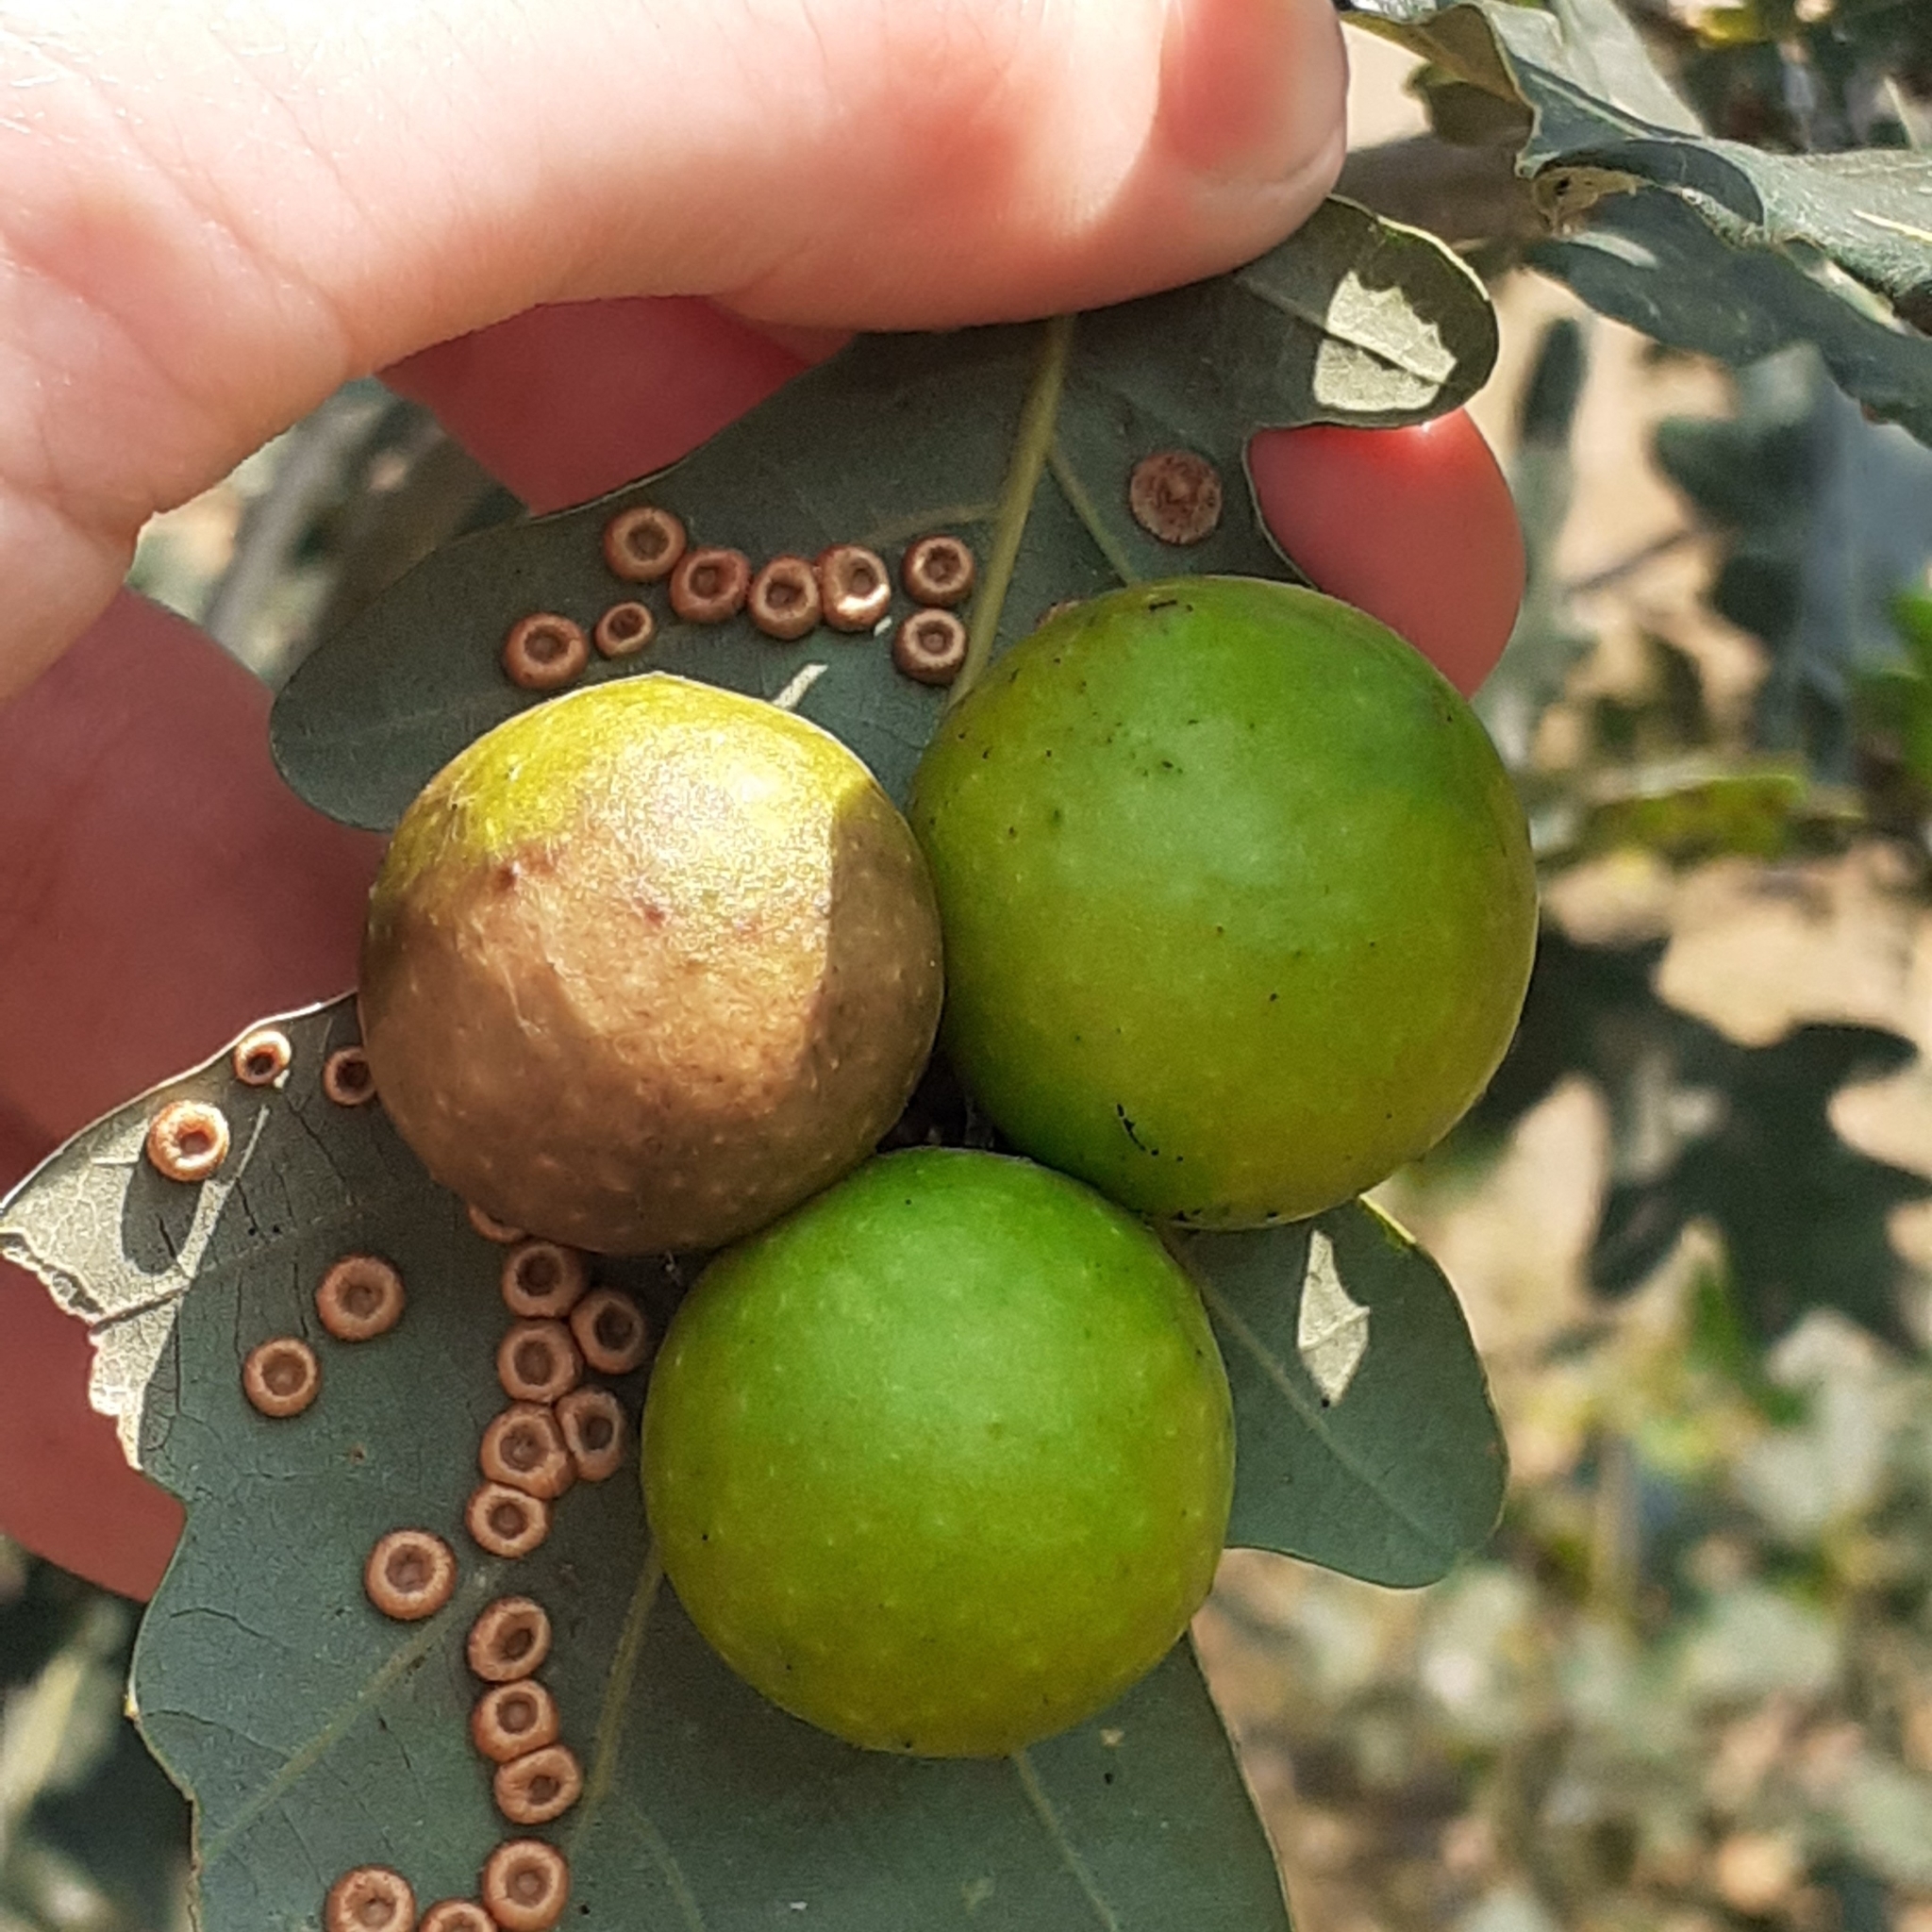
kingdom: Animalia
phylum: Arthropoda
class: Insecta
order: Hymenoptera
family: Cynipidae
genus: Cynips
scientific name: Cynips quercusfolii
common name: Cherry gall
